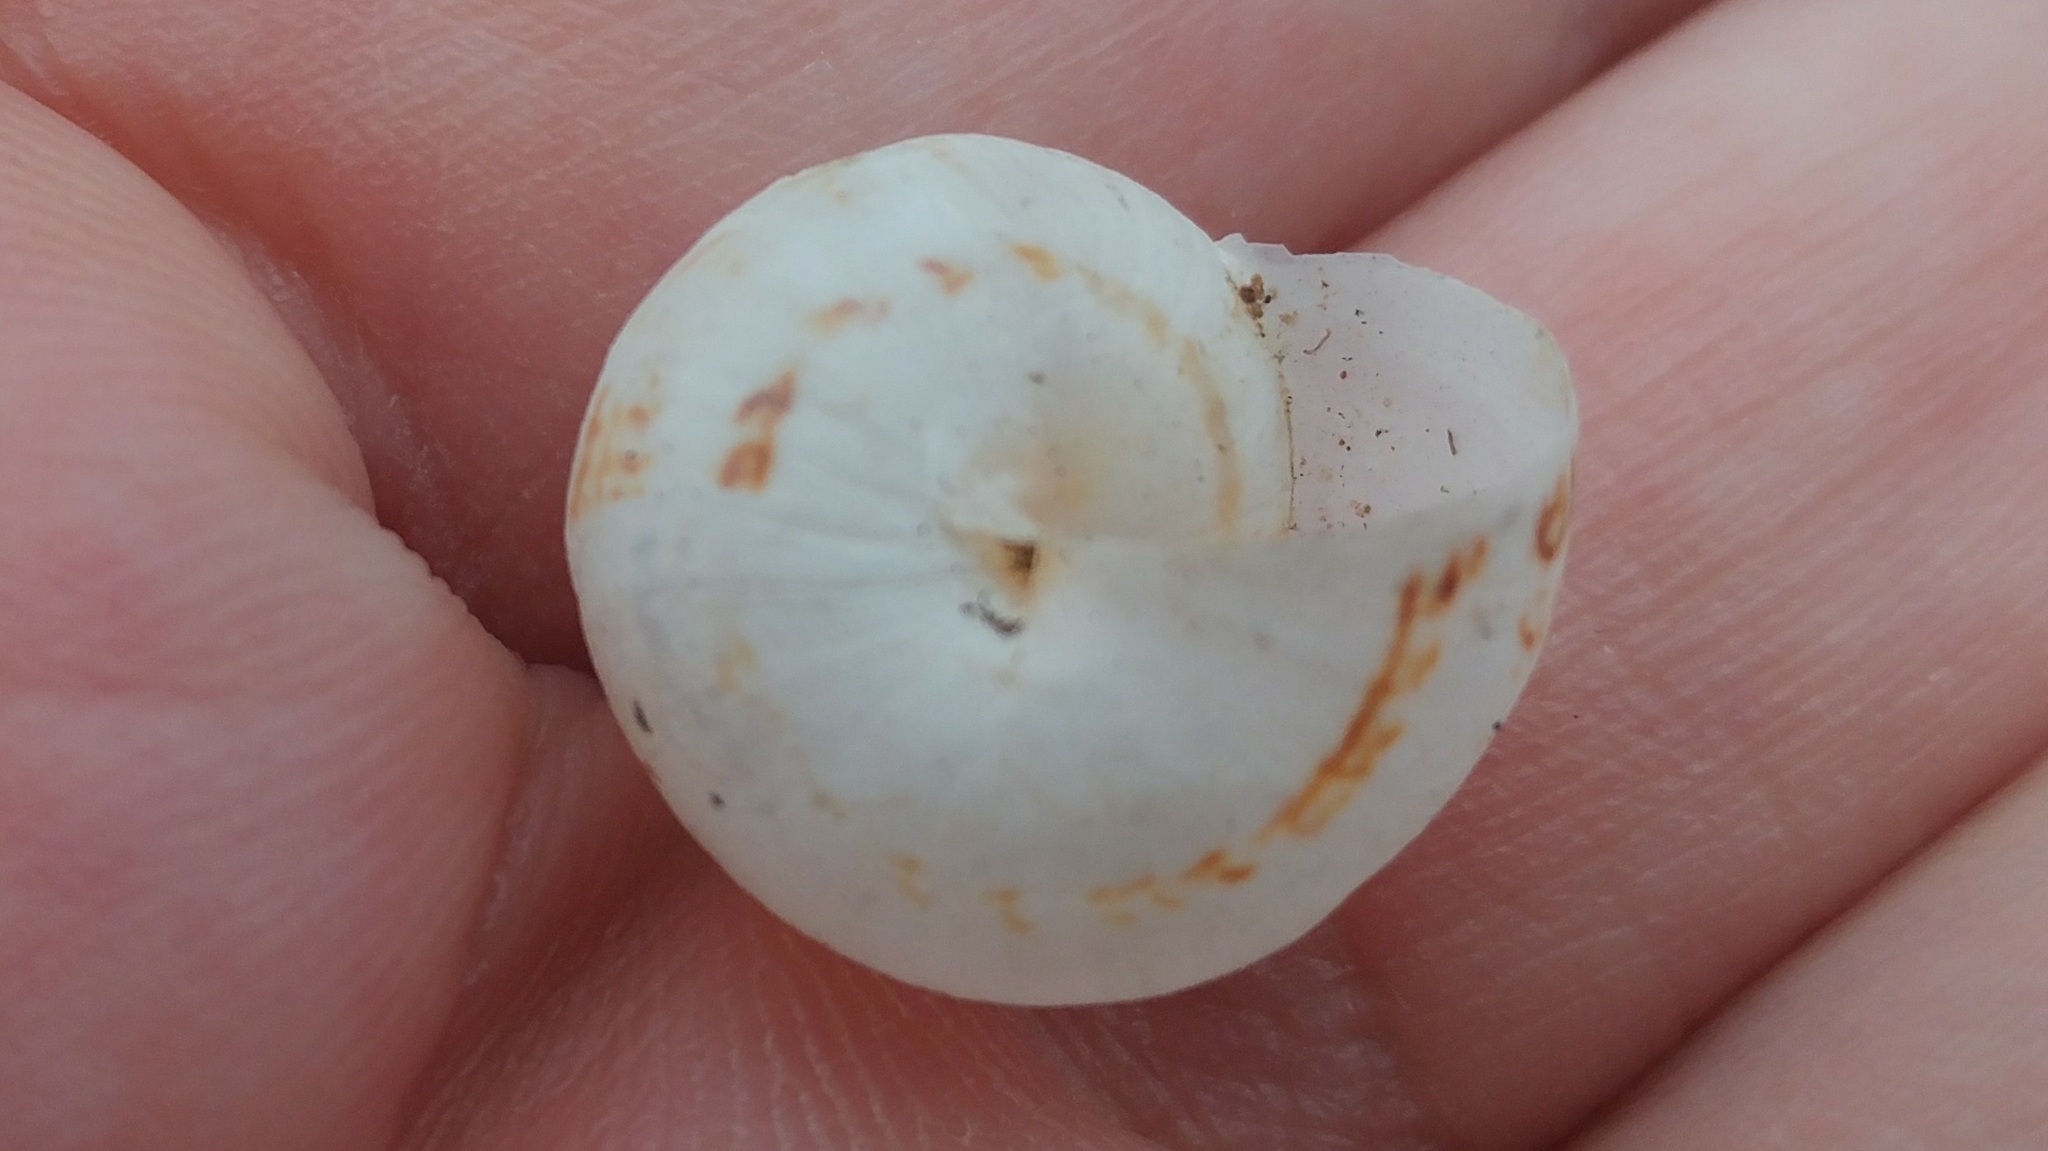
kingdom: Animalia
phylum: Mollusca
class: Gastropoda
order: Stylommatophora
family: Helicidae
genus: Theba
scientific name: Theba pisana
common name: White snail
